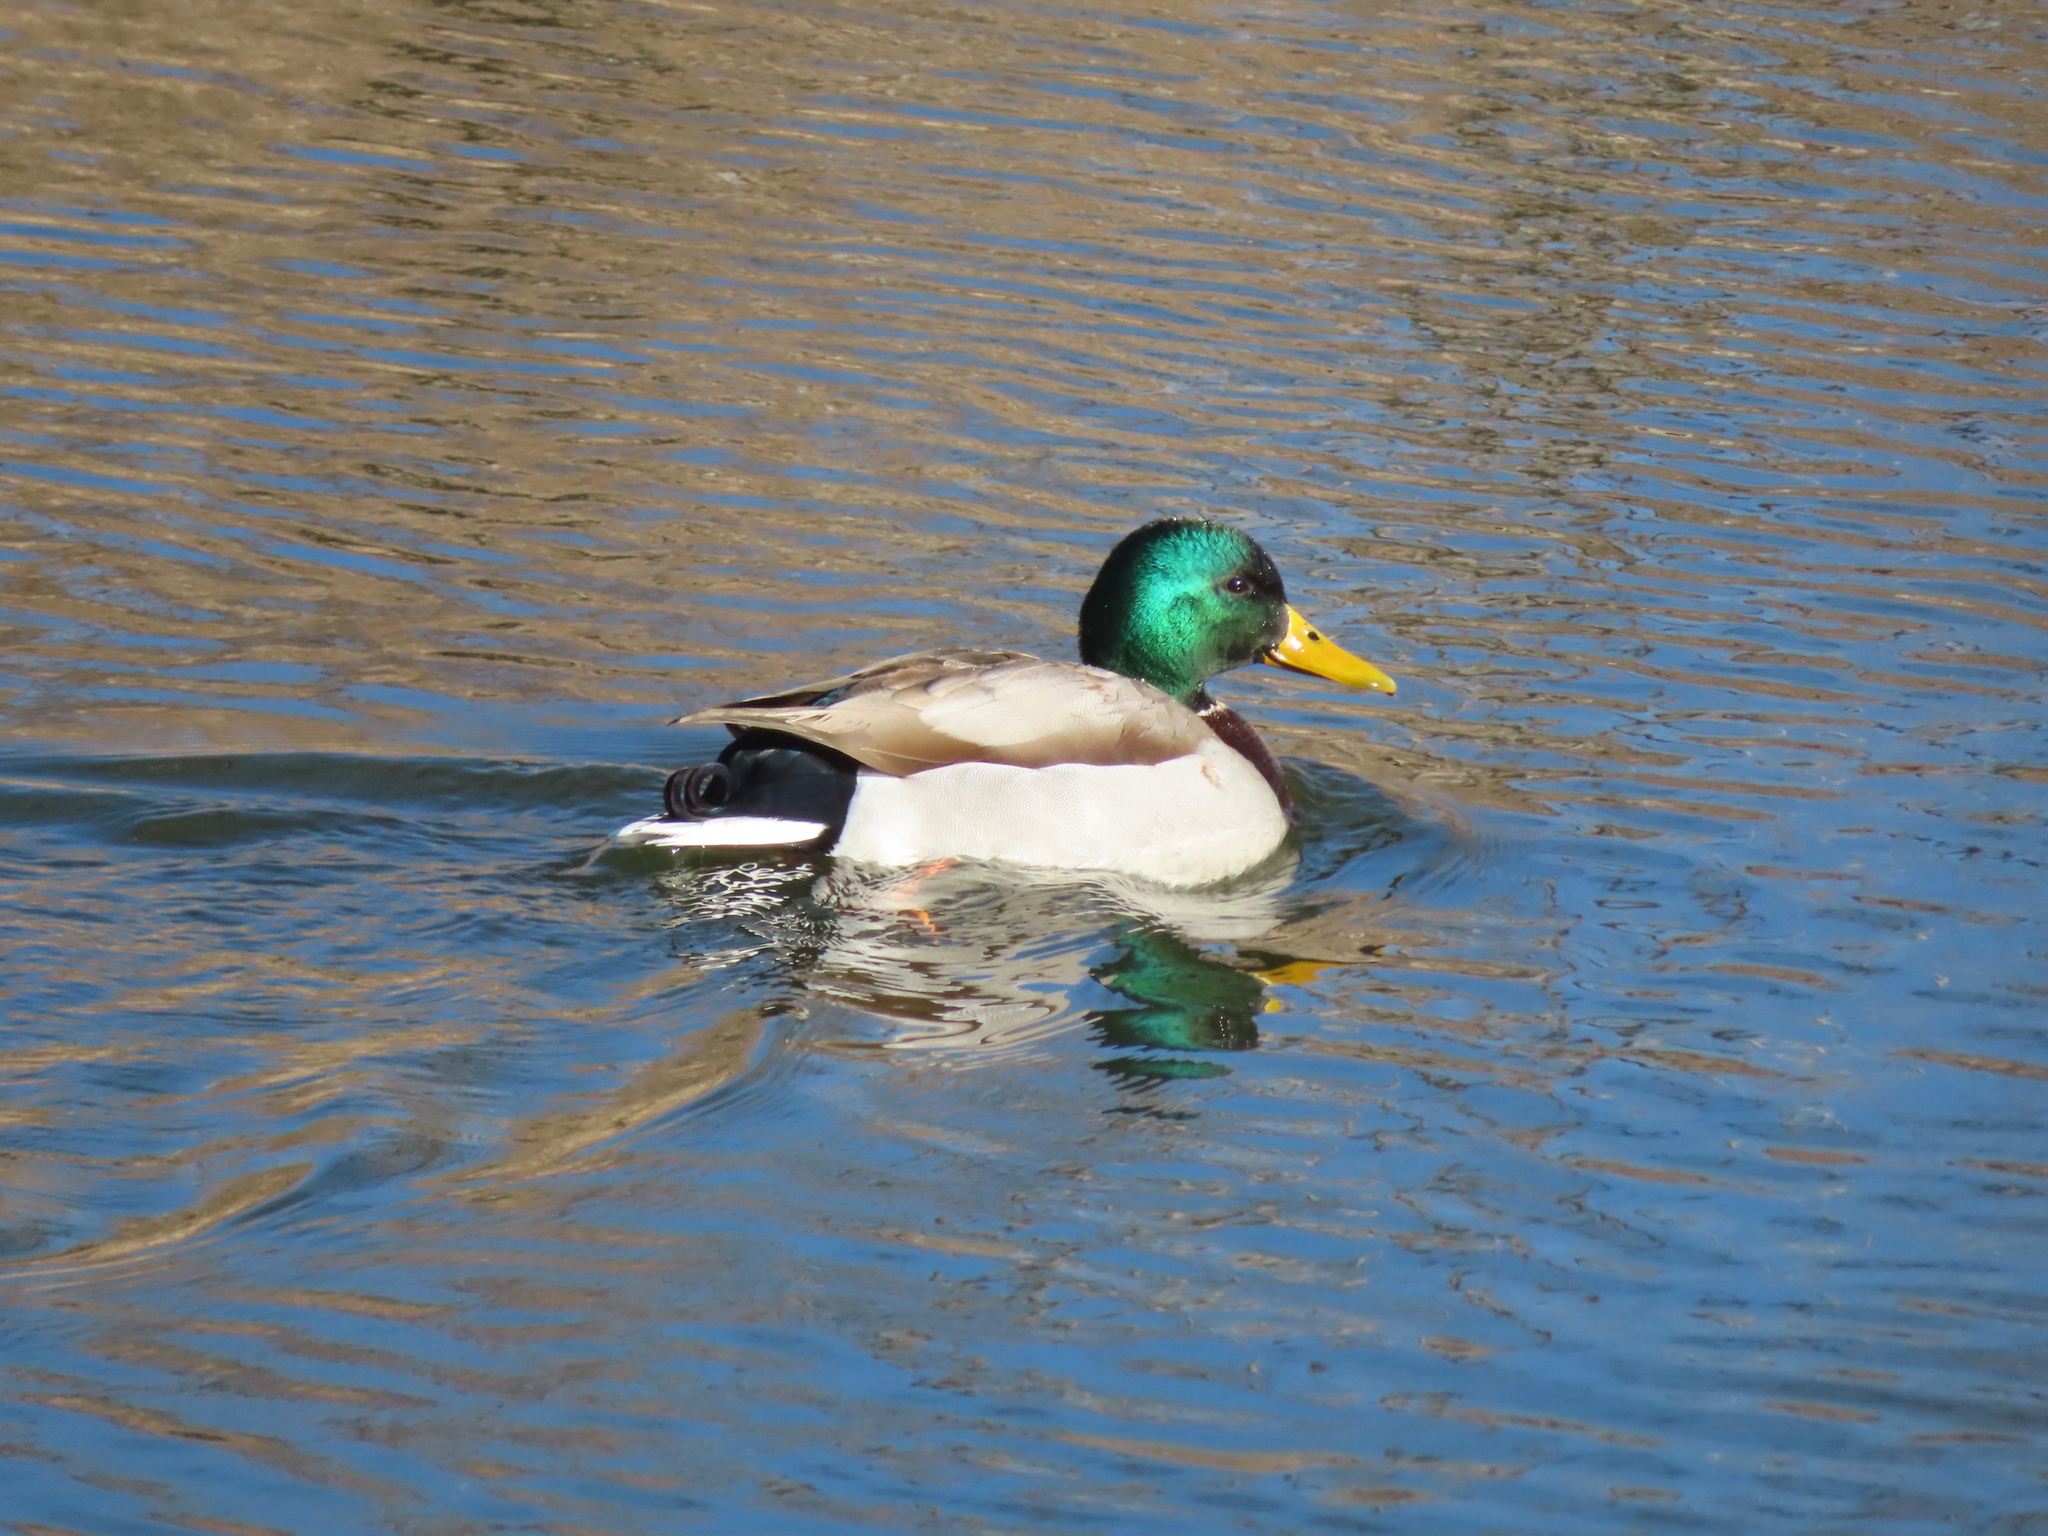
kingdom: Animalia
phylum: Chordata
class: Aves
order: Anseriformes
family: Anatidae
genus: Anas
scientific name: Anas platyrhynchos
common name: Mallard
